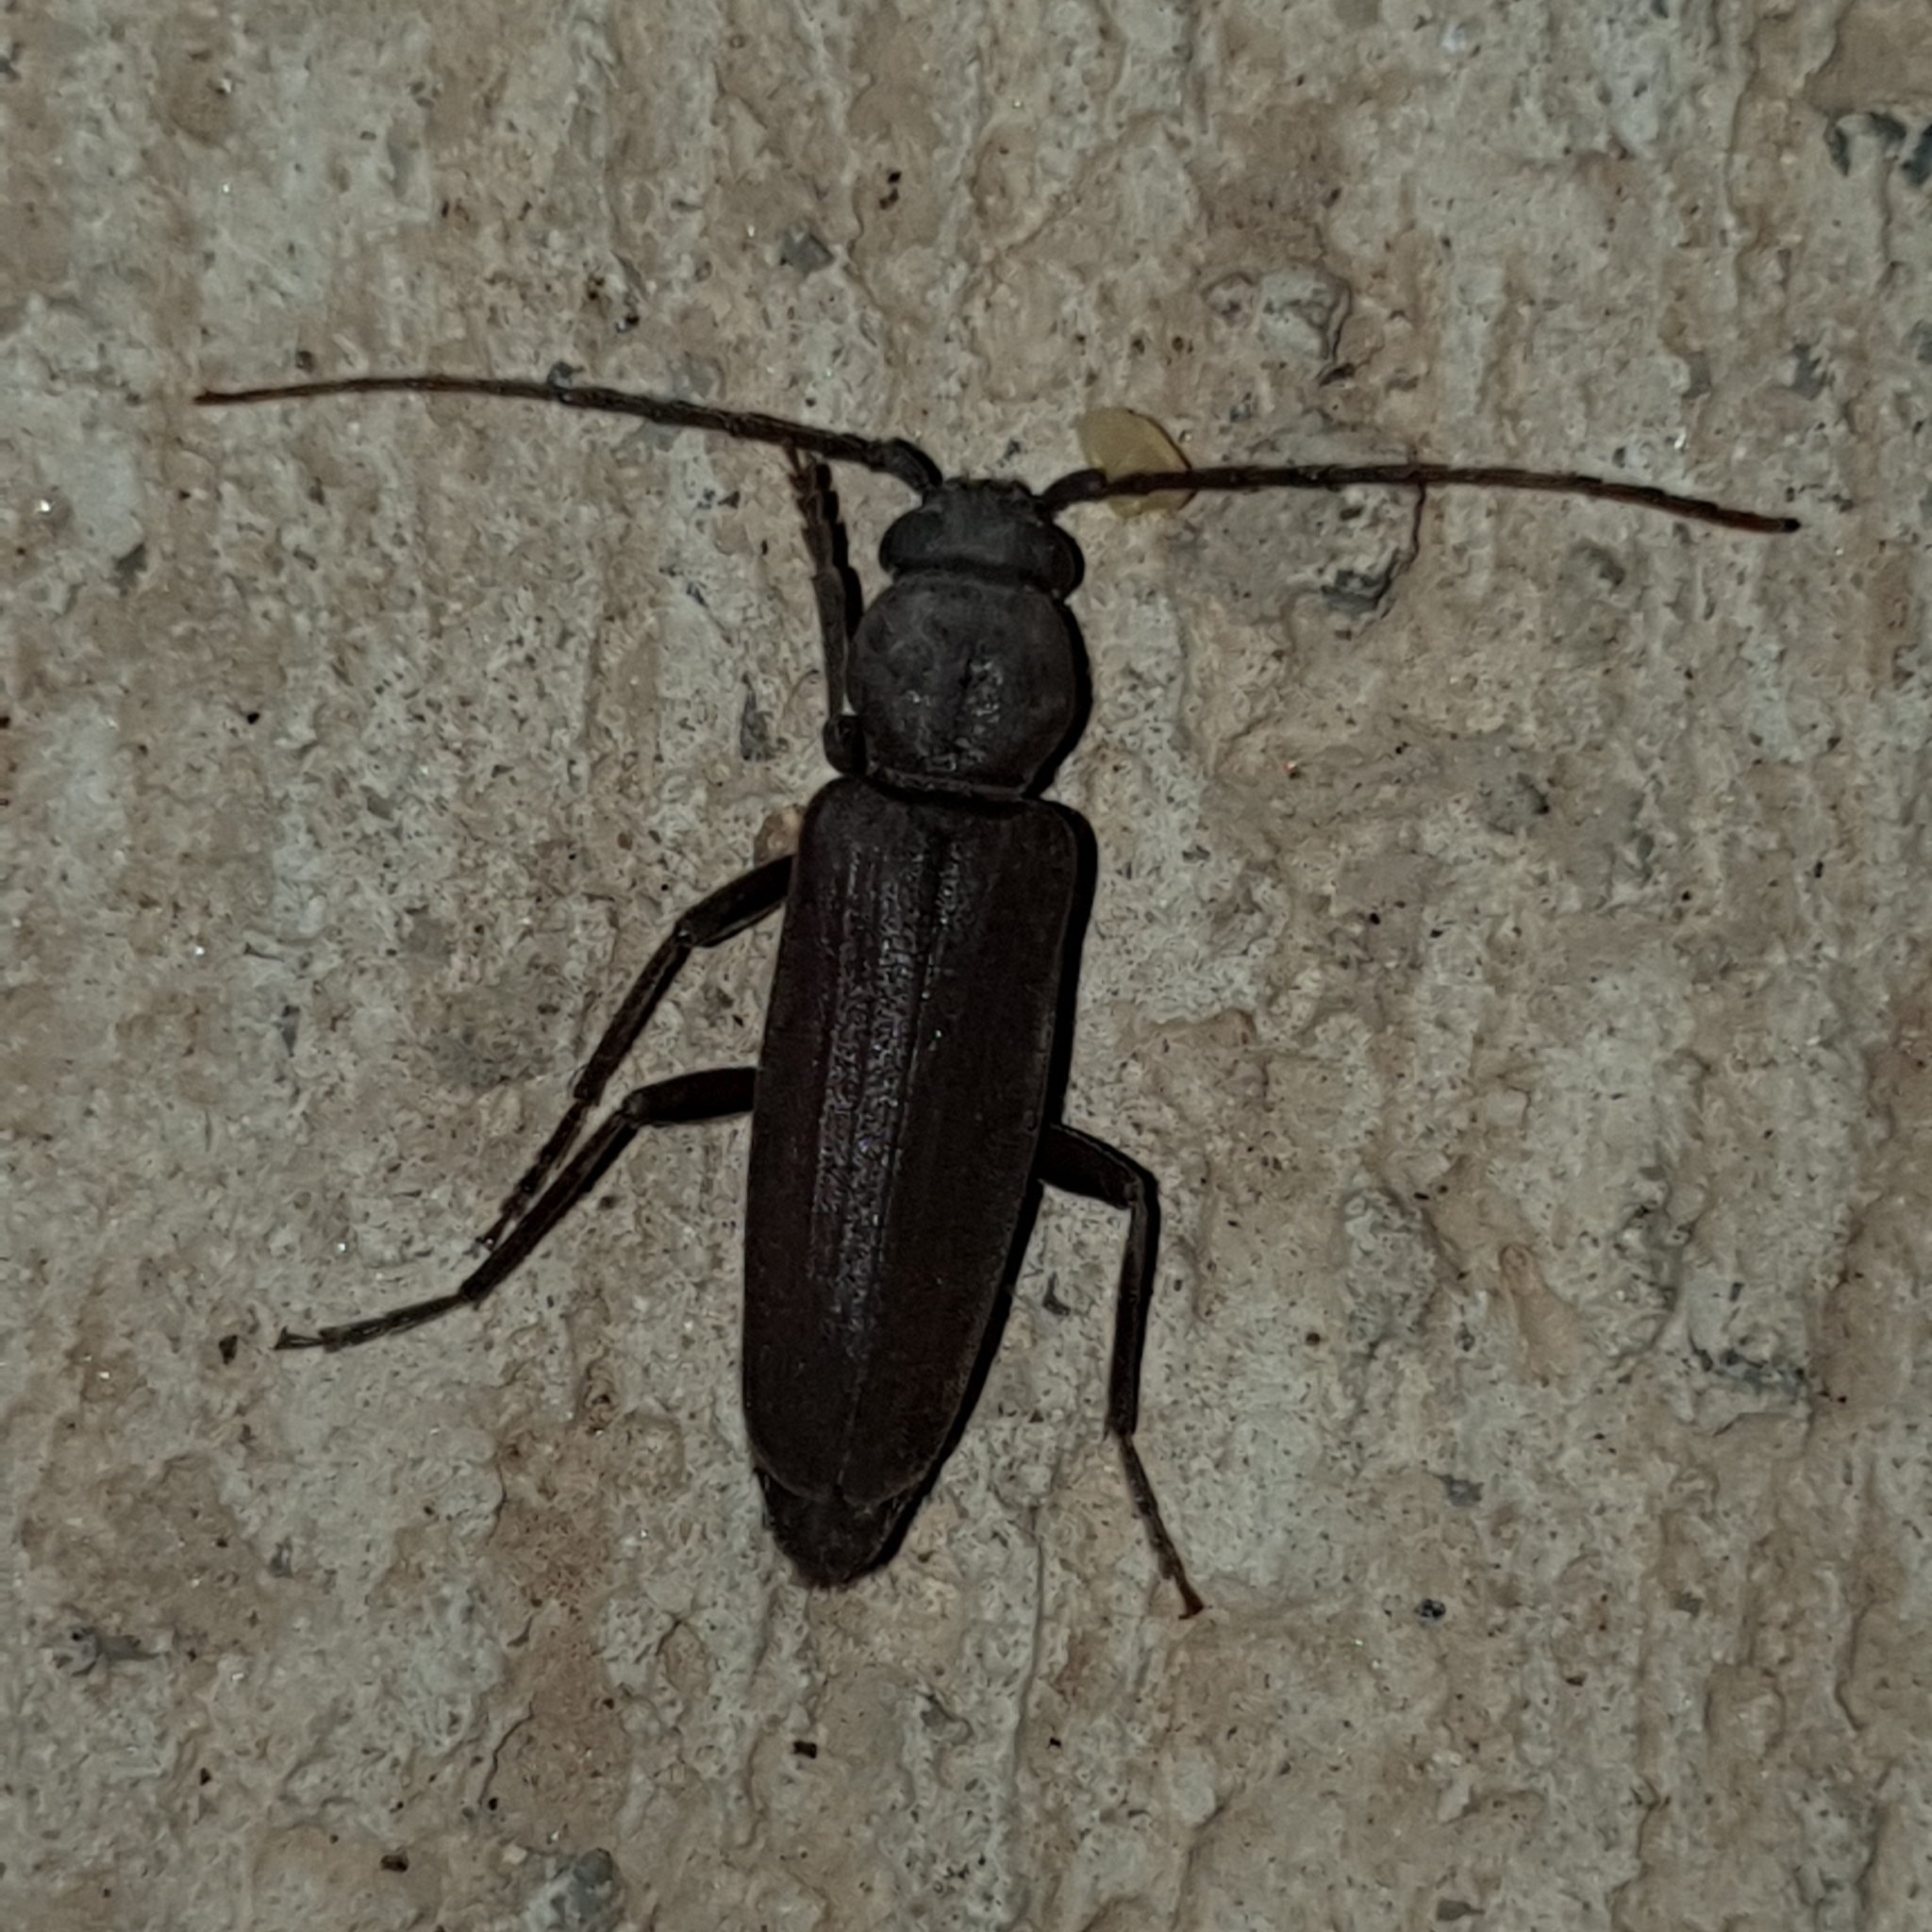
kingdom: Animalia
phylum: Arthropoda
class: Insecta
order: Coleoptera
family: Cerambycidae
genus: Arhopalus
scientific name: Arhopalus ferus
